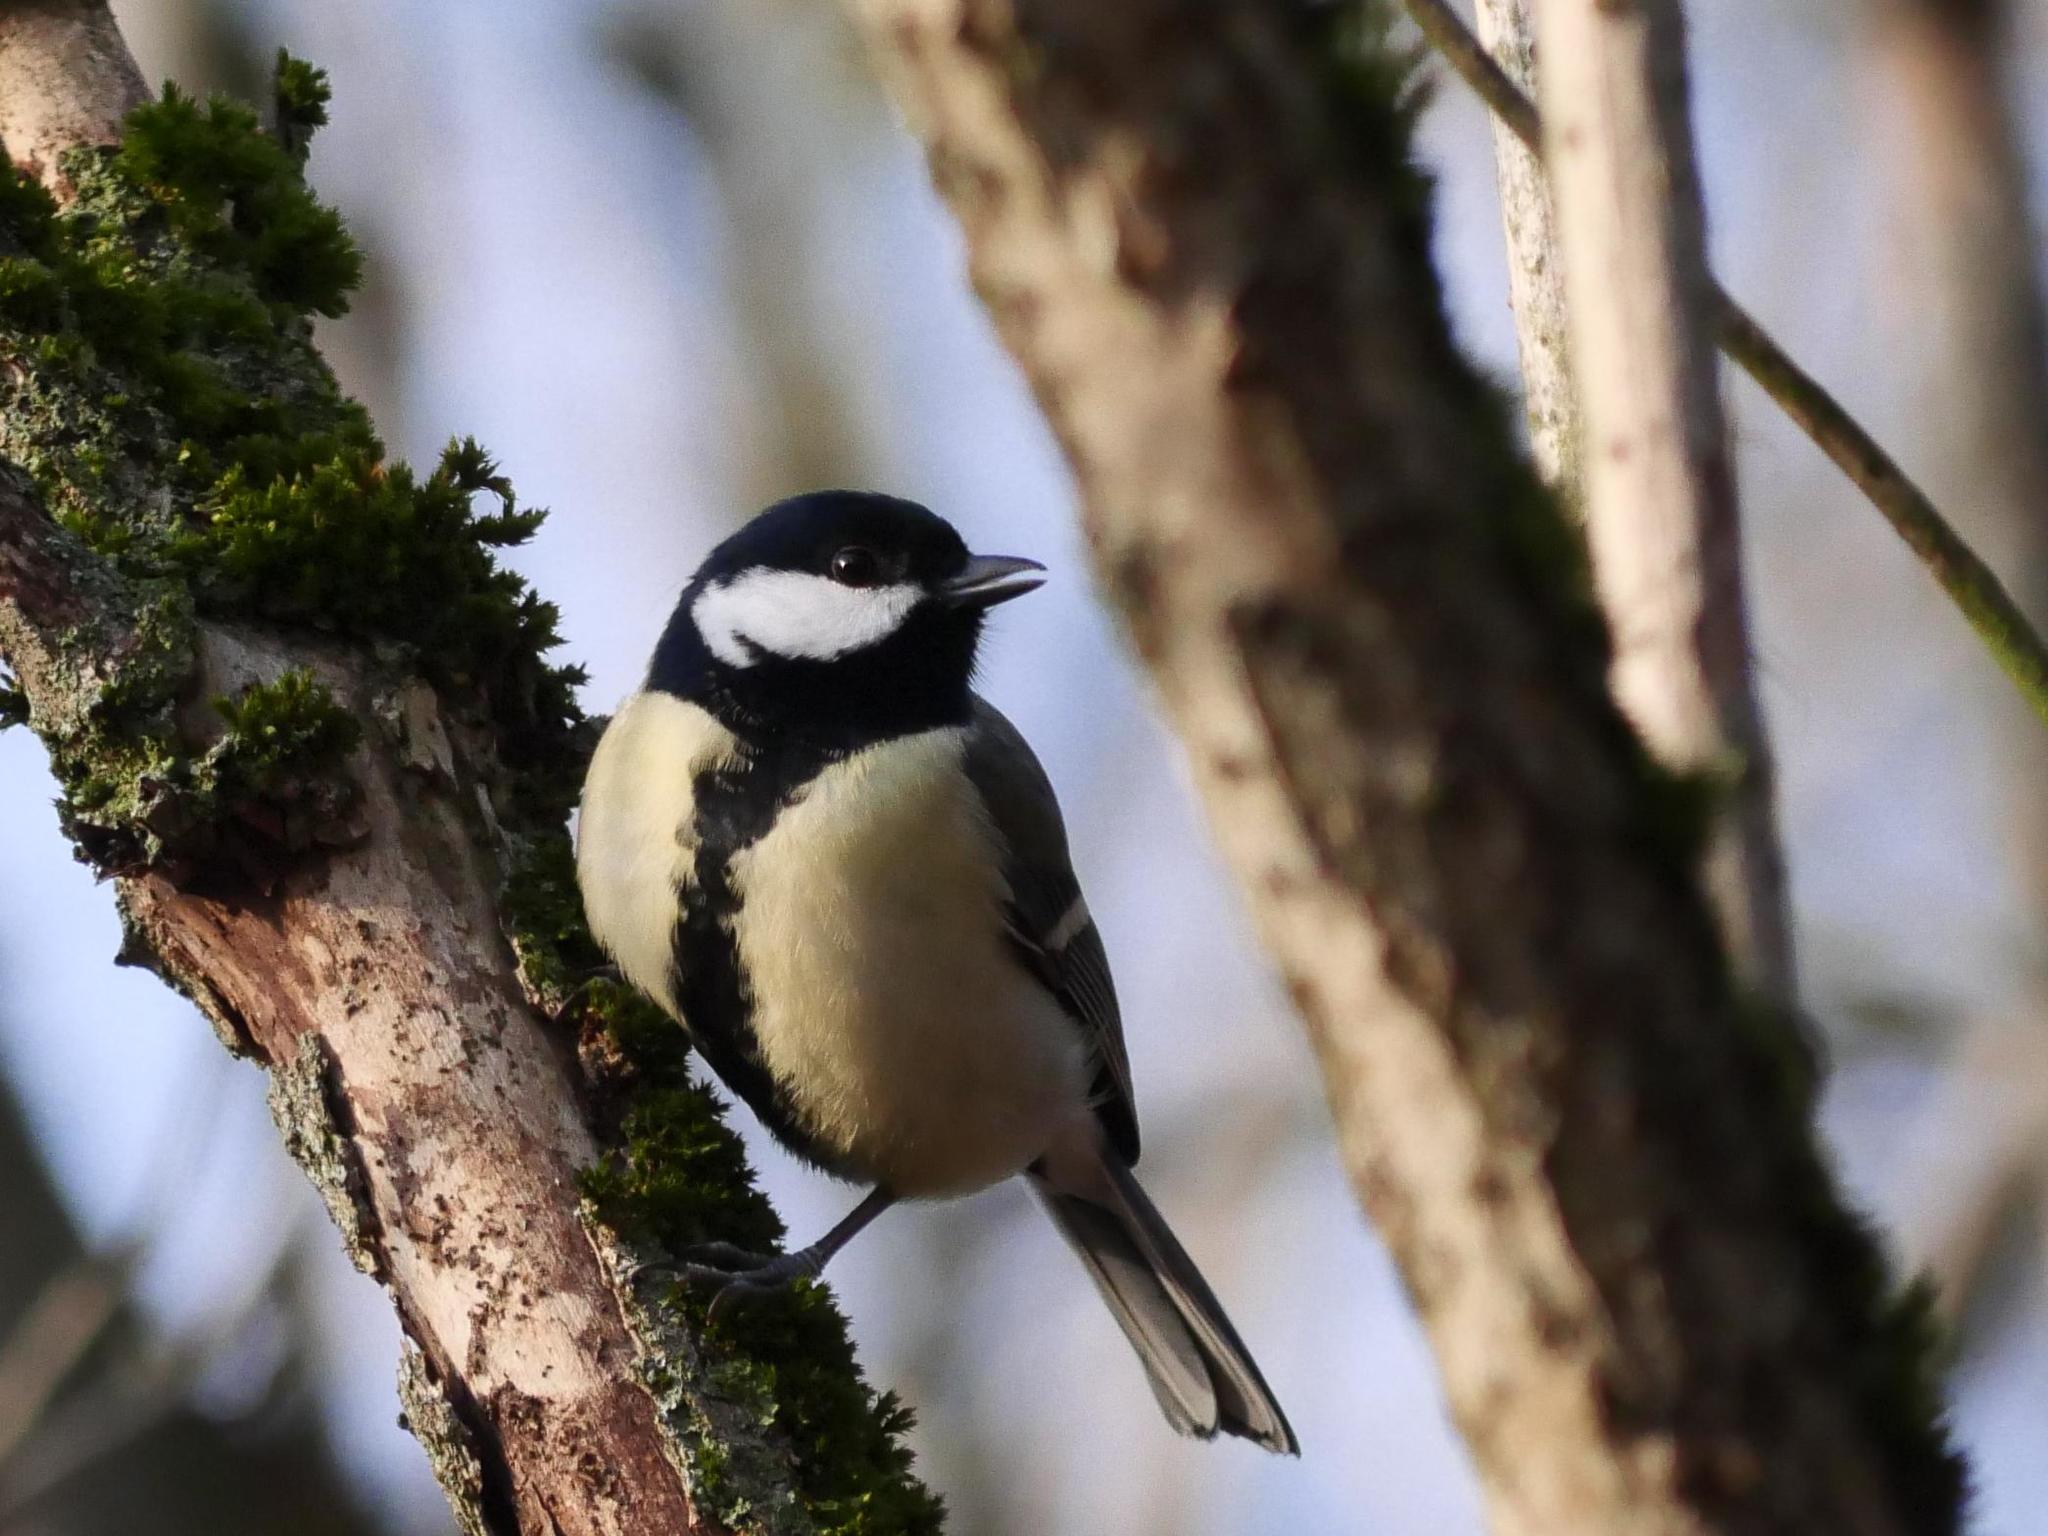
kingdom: Animalia
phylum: Chordata
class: Aves
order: Passeriformes
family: Paridae
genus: Parus
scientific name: Parus major
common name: Great tit
